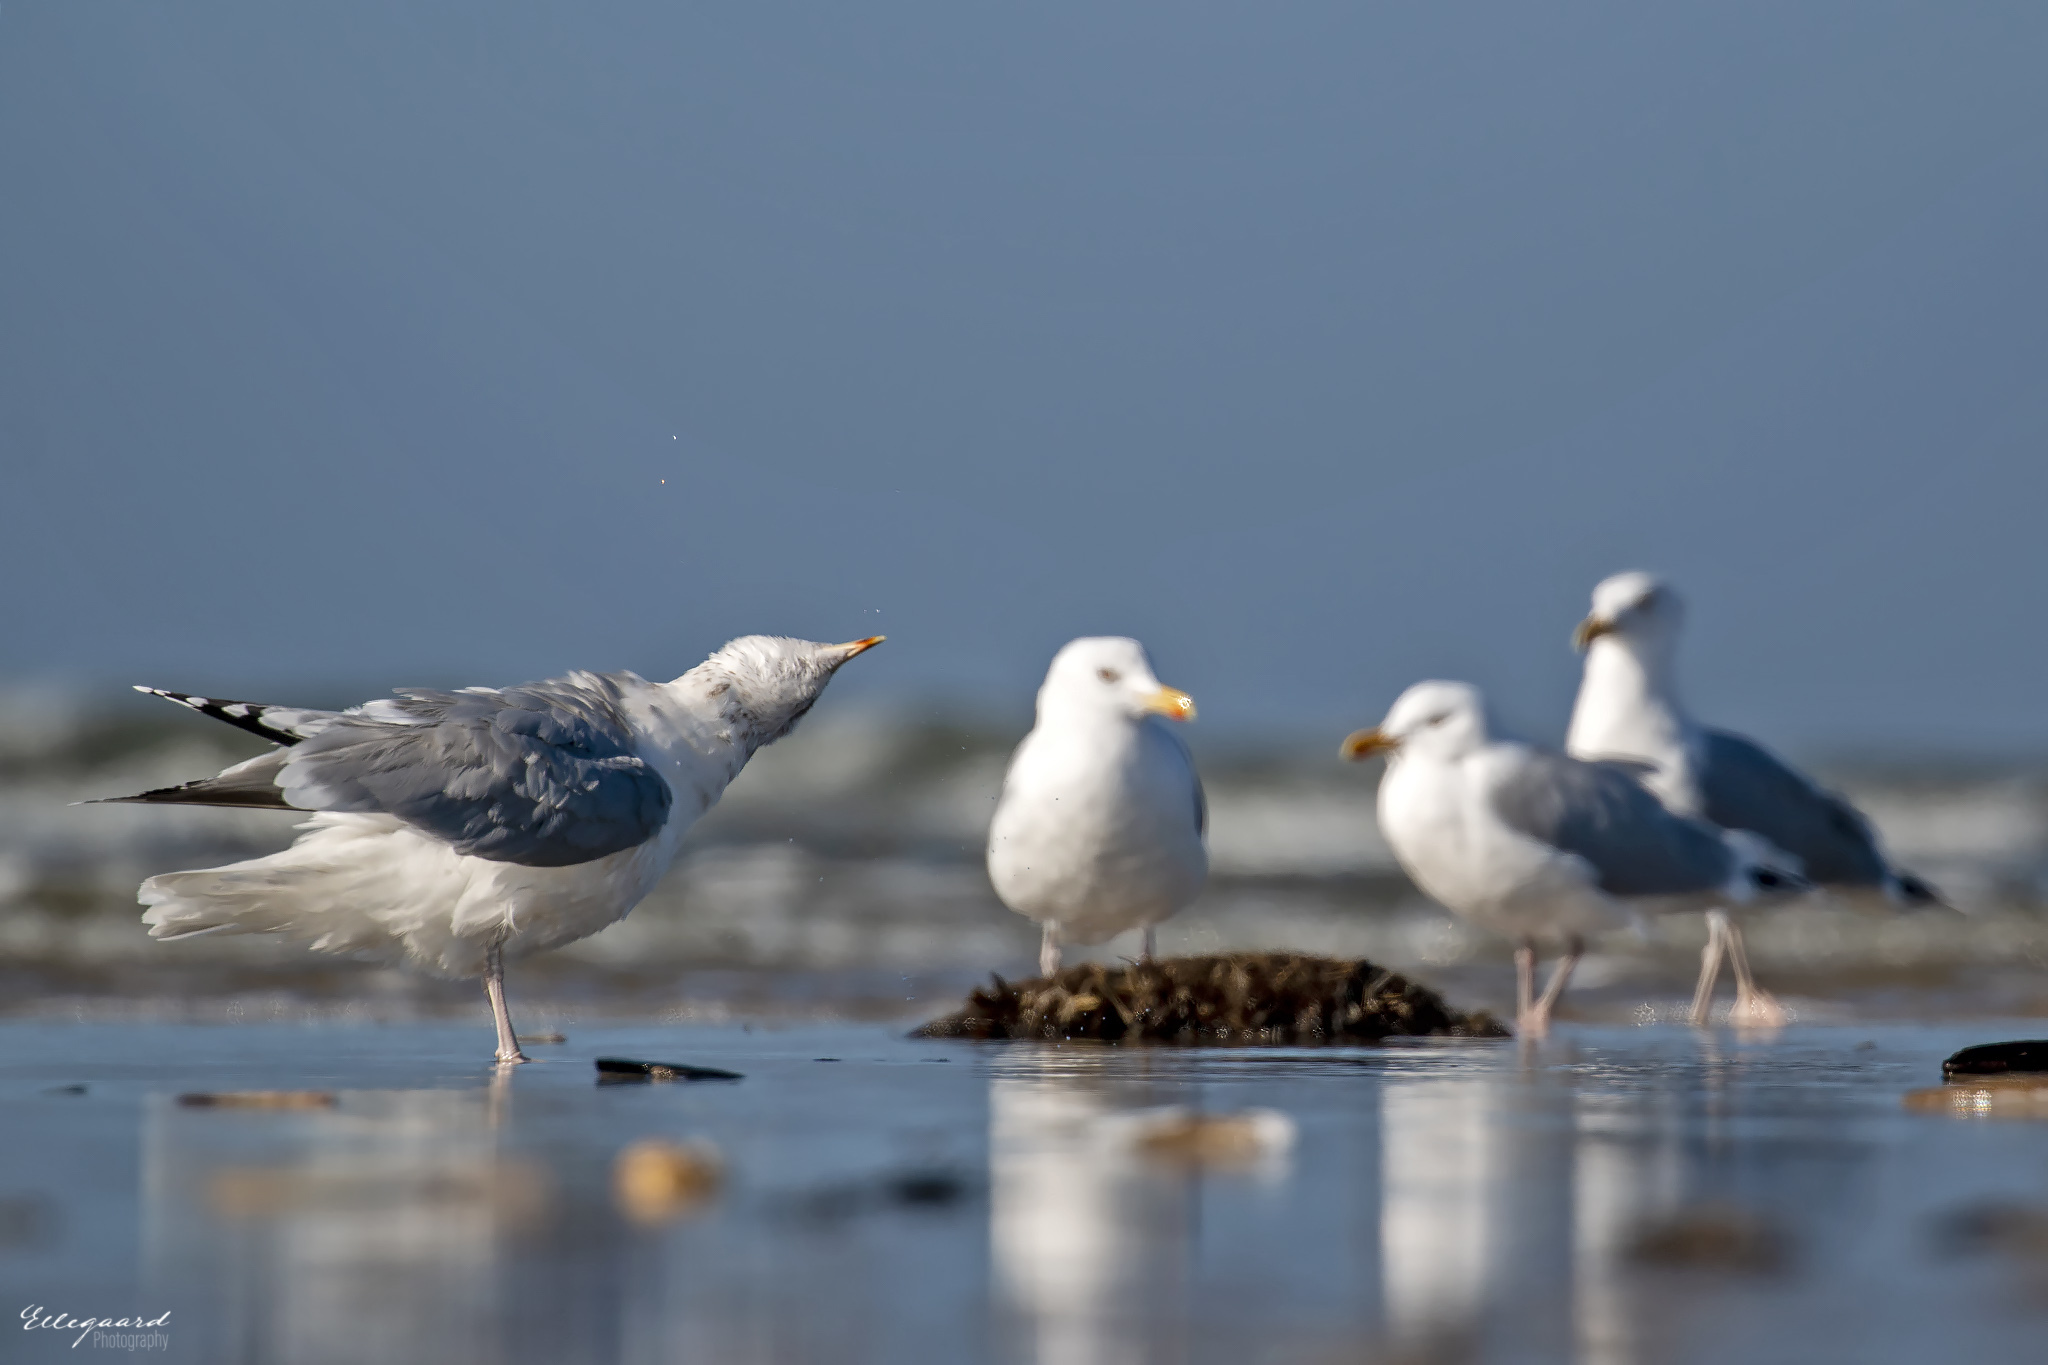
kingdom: Animalia
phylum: Chordata
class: Aves
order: Charadriiformes
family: Laridae
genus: Larus
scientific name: Larus argentatus
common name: Herring gull
